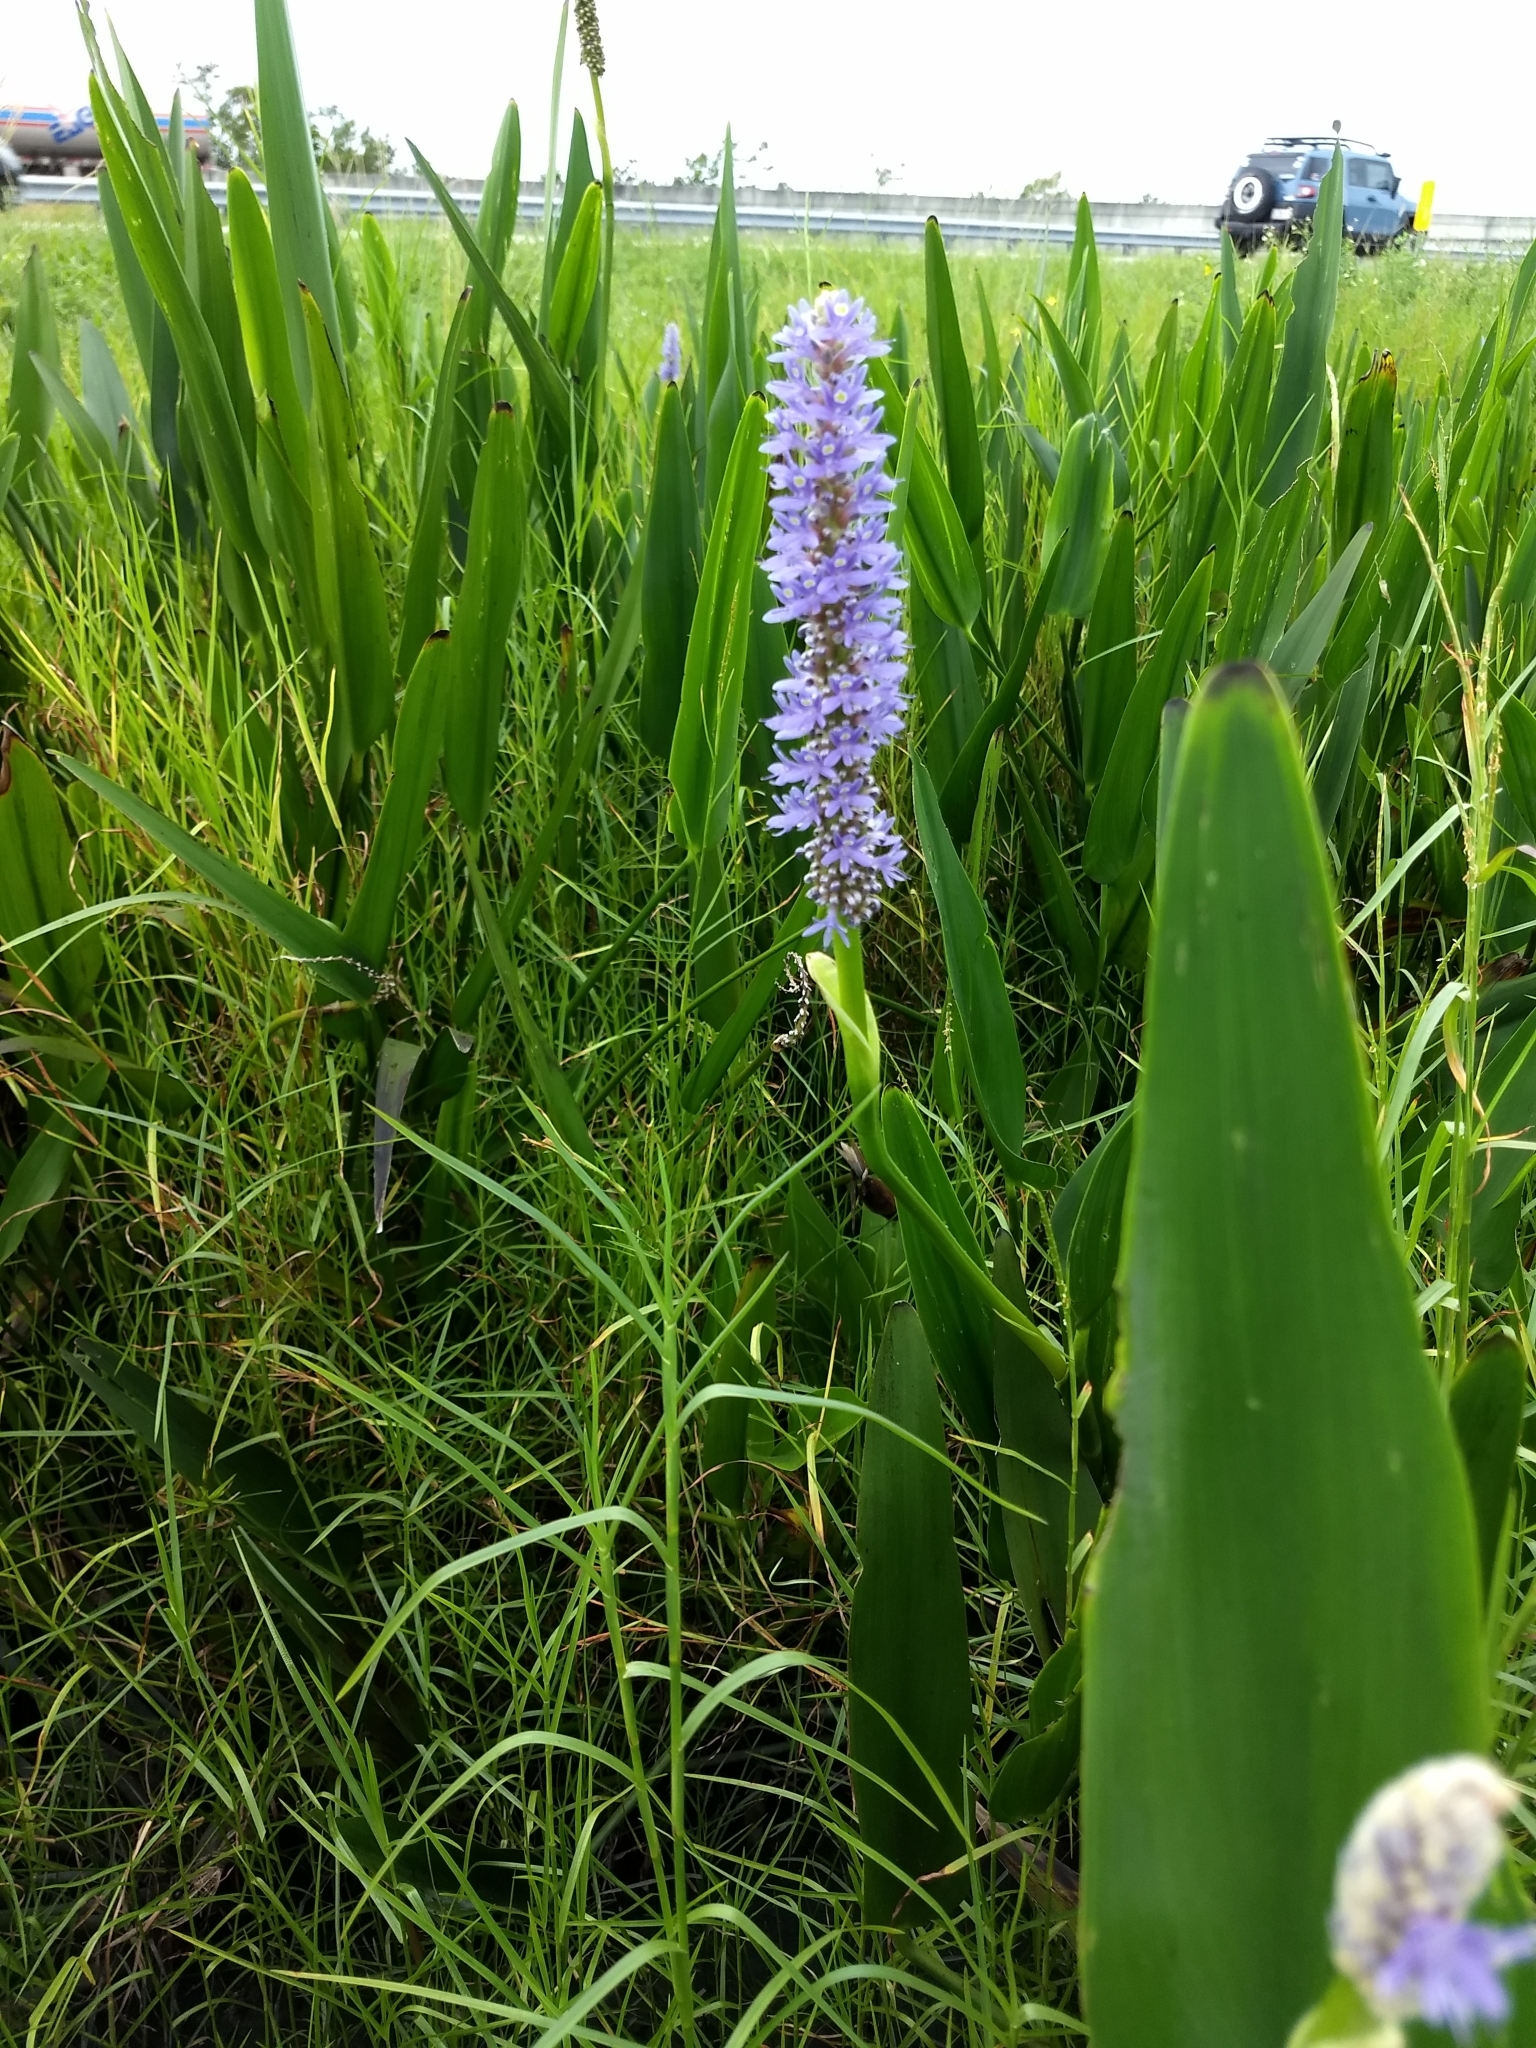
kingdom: Plantae
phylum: Tracheophyta
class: Liliopsida
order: Commelinales
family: Pontederiaceae
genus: Pontederia
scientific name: Pontederia cordata
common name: Pickerelweed
